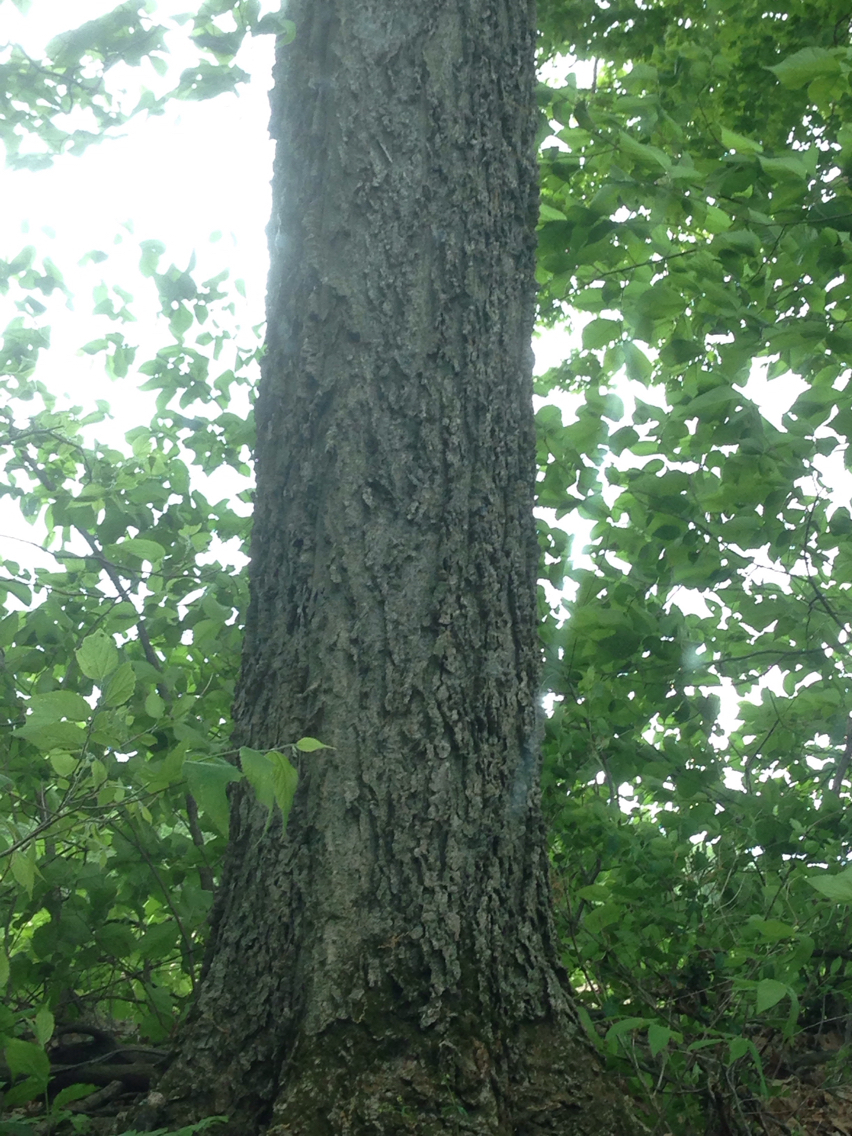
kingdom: Plantae
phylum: Tracheophyta
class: Magnoliopsida
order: Rosales
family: Cannabaceae
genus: Celtis
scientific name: Celtis occidentalis
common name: Common hackberry
